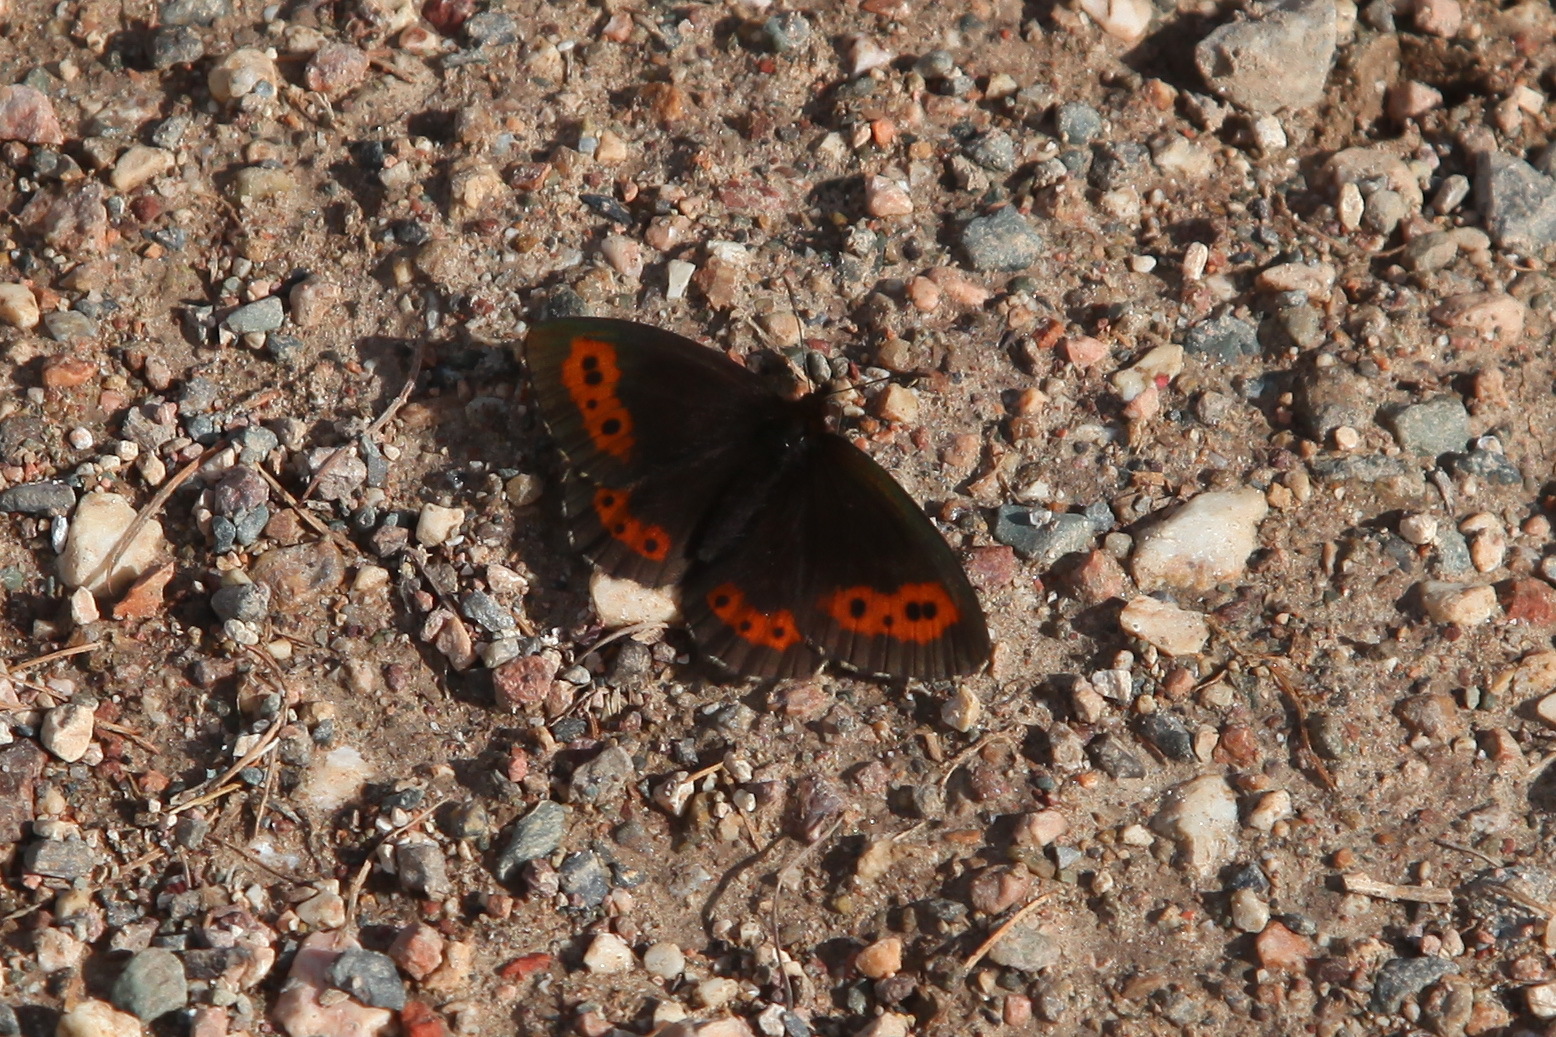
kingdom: Animalia
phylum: Arthropoda
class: Insecta
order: Lepidoptera
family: Nymphalidae
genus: Erebia
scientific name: Erebia jeniseiensis
